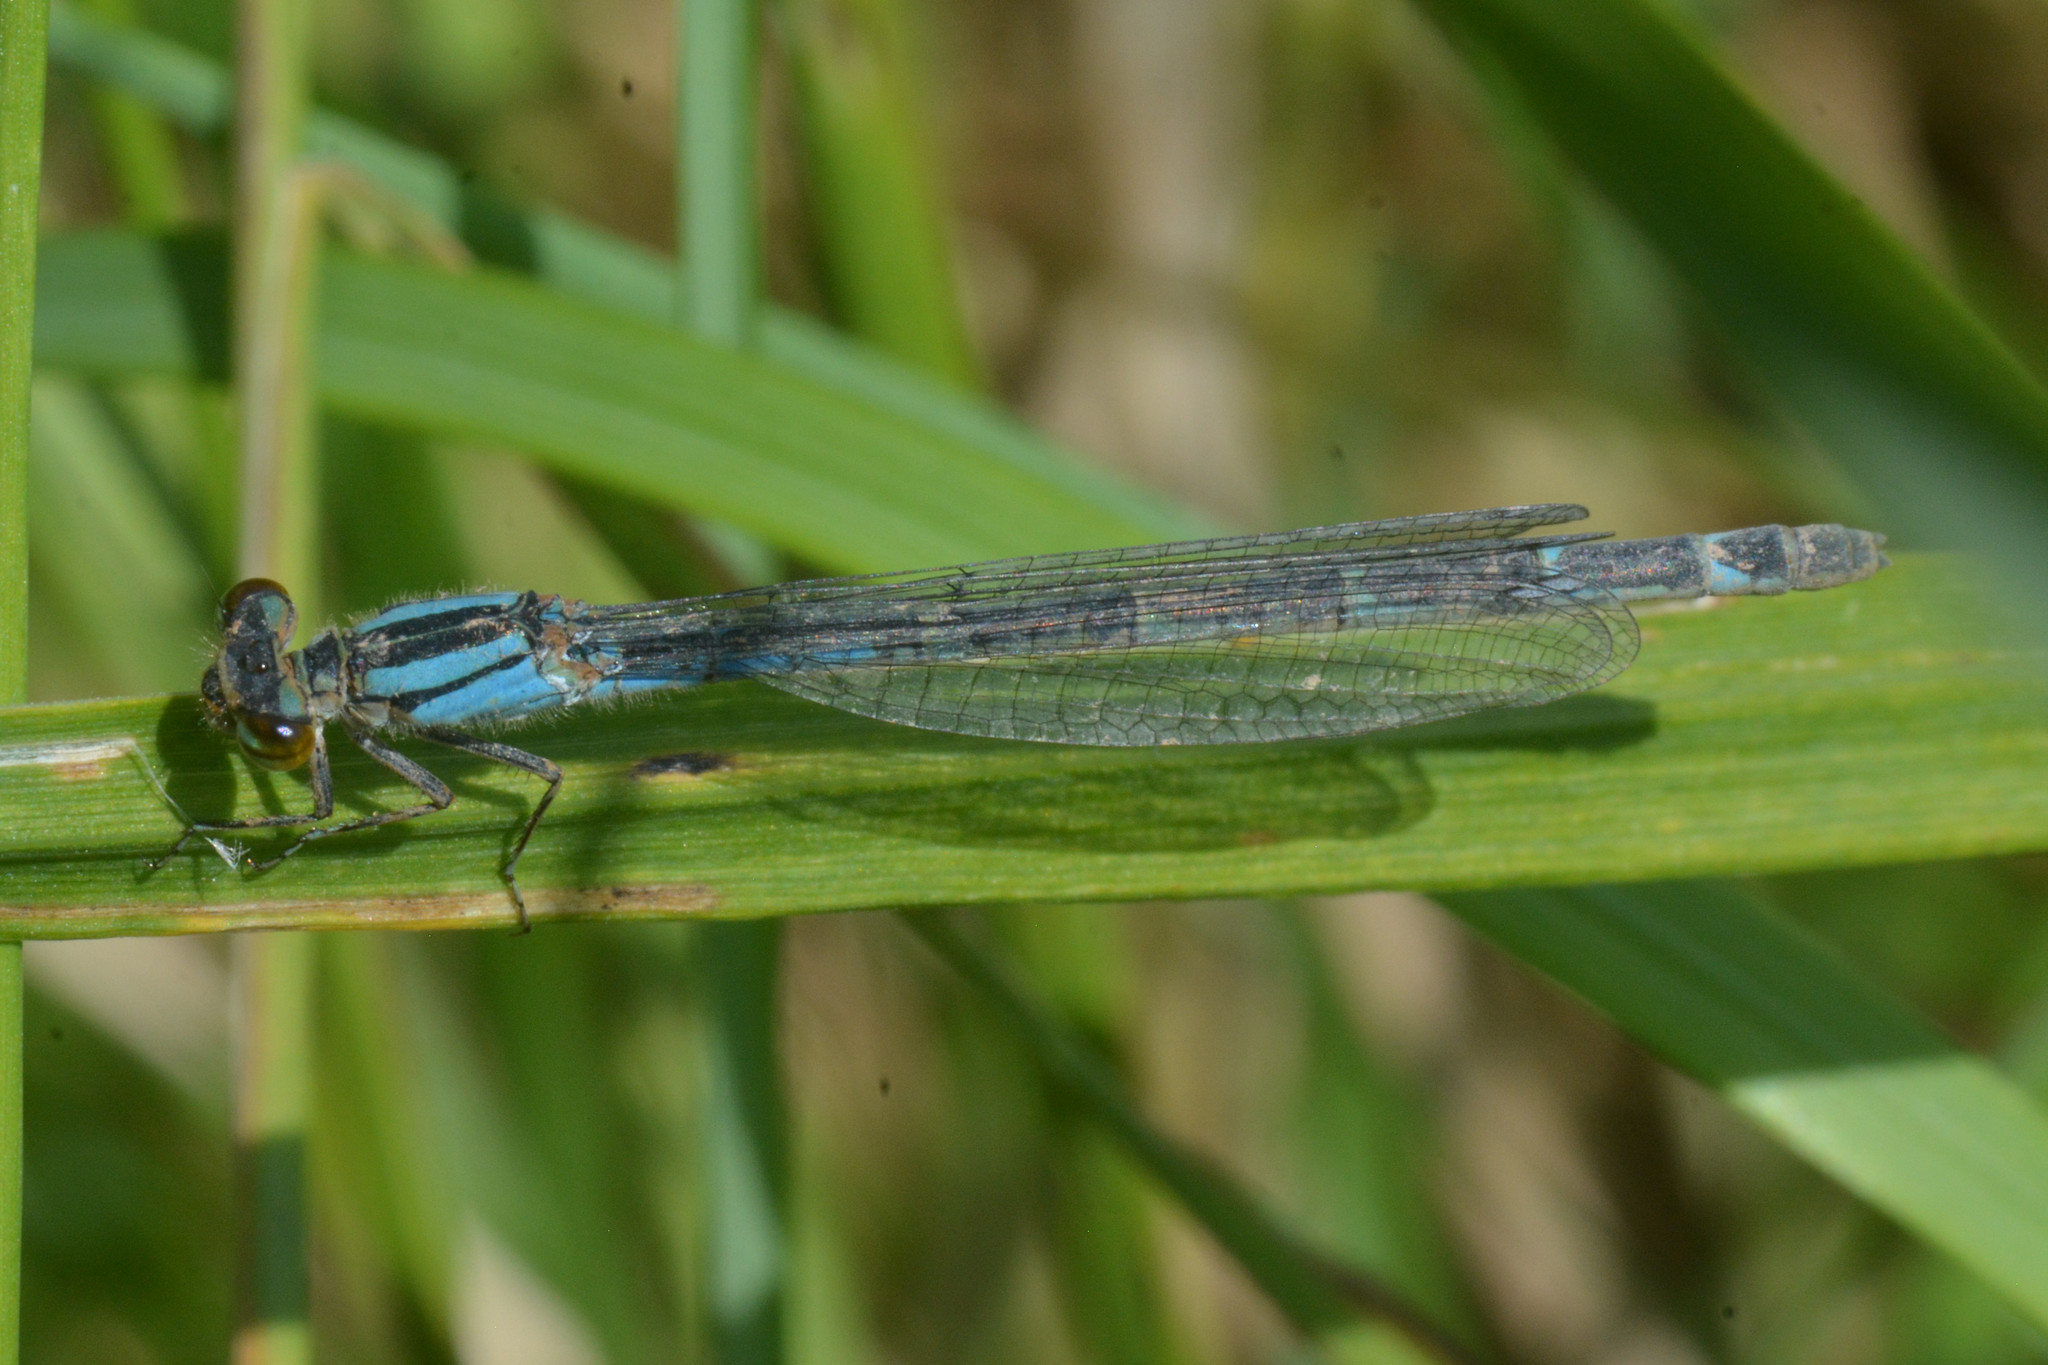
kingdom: Animalia
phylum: Arthropoda
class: Insecta
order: Odonata
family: Coenagrionidae
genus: Enallagma
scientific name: Enallagma cyathigerum
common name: Common blue damselfly
